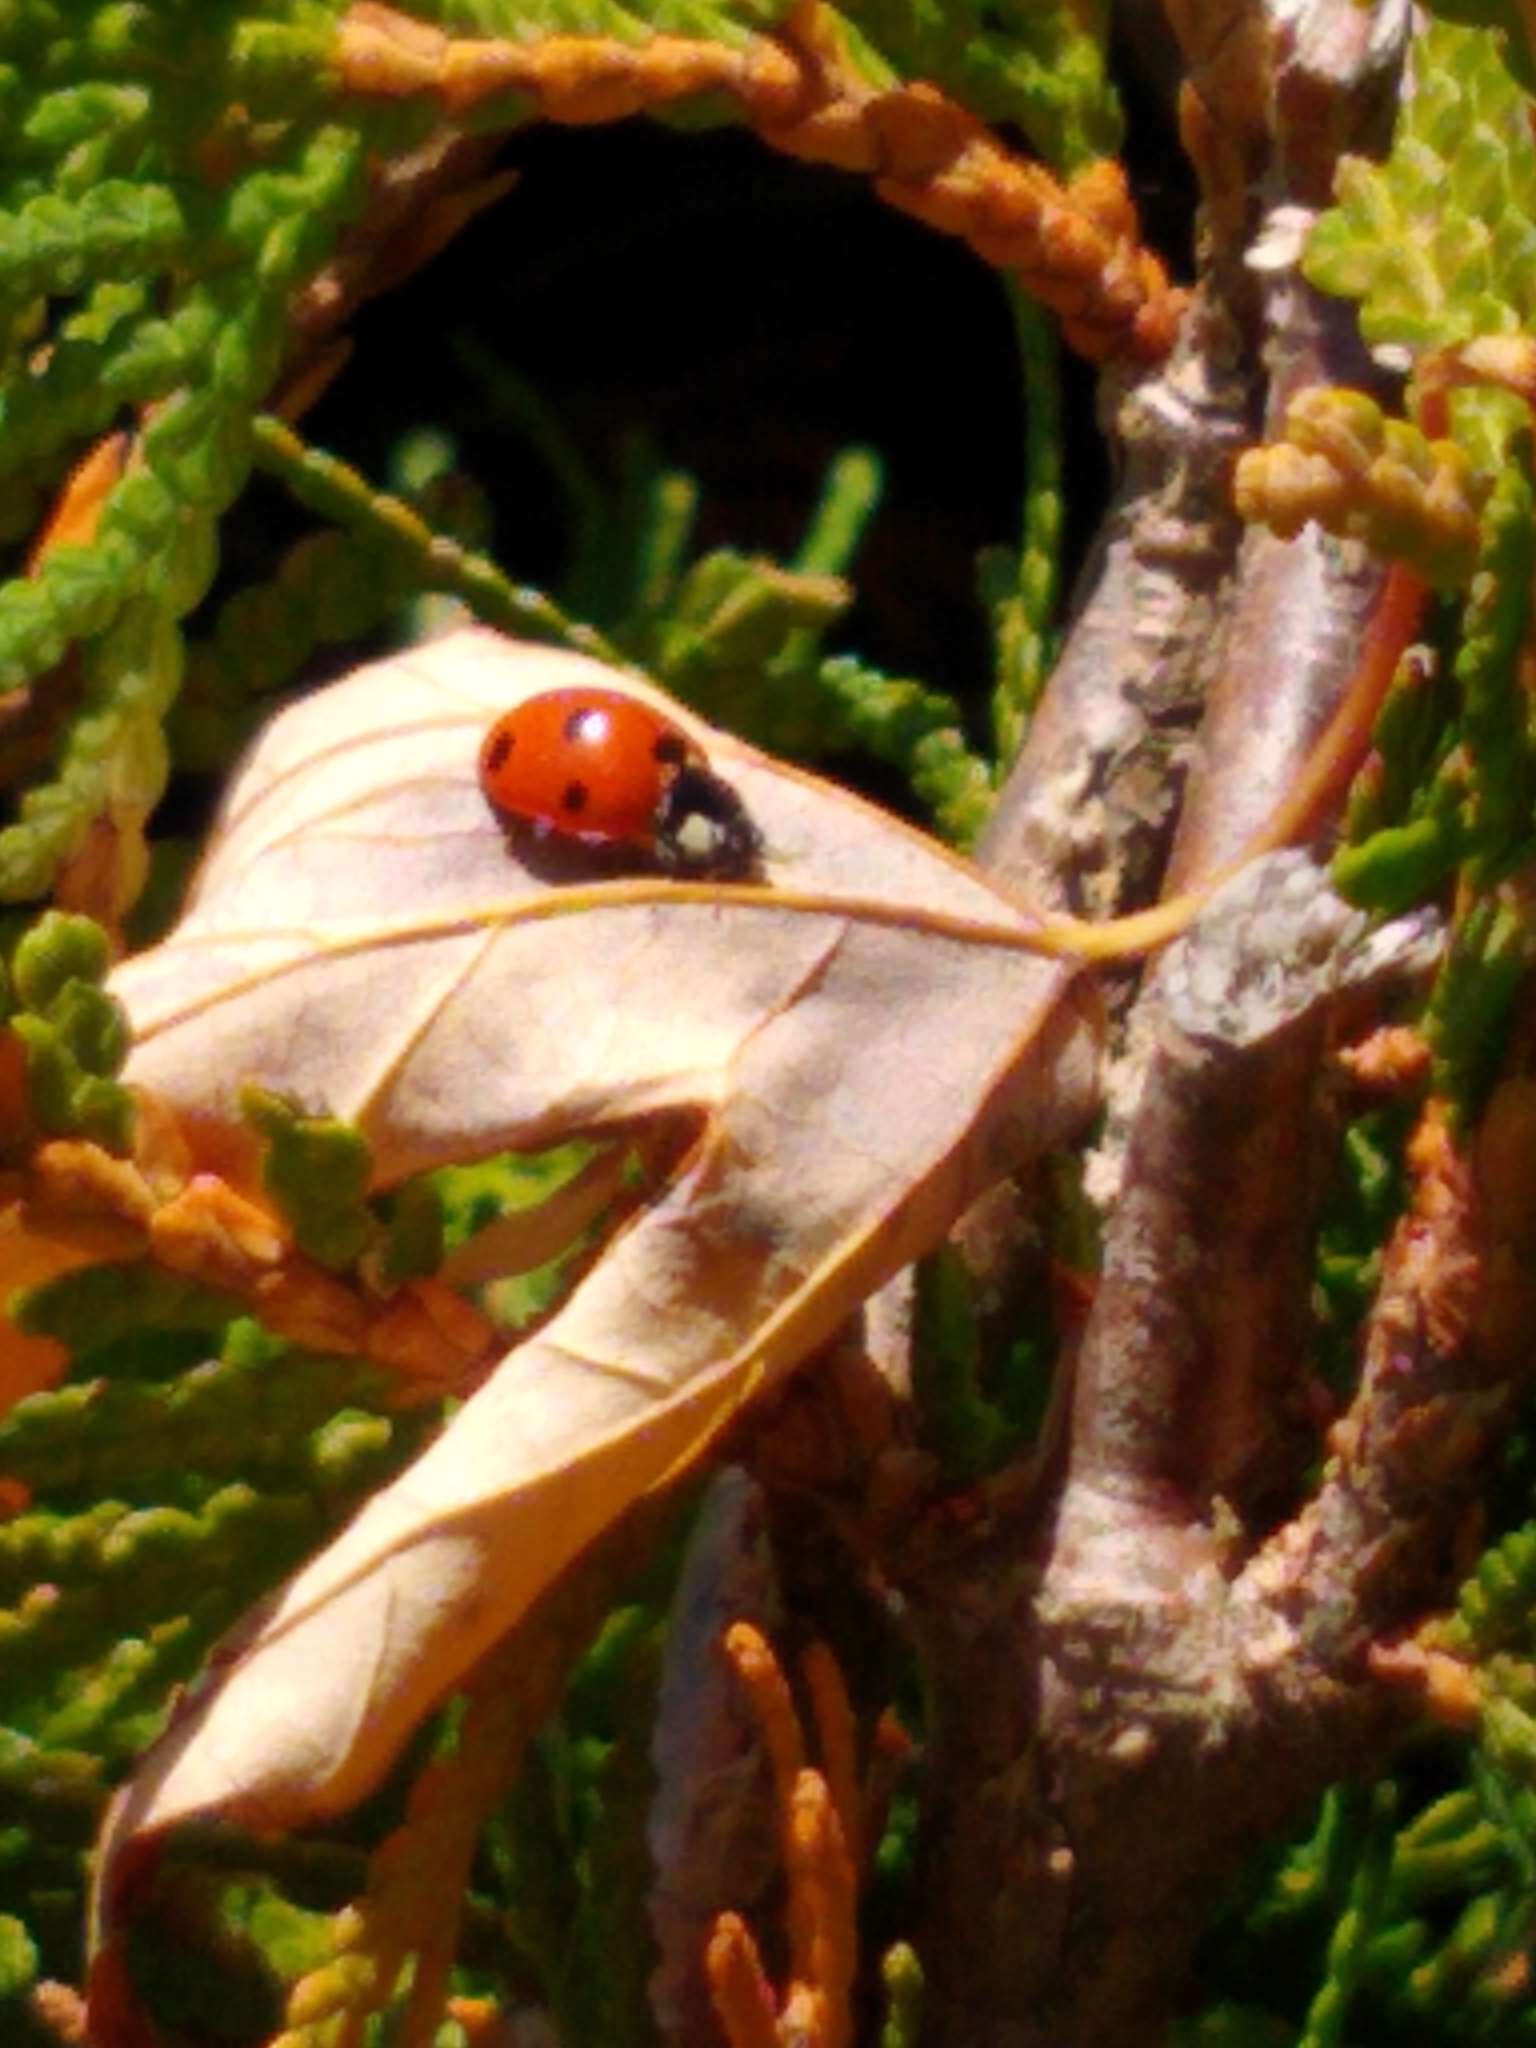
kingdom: Animalia
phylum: Arthropoda
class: Insecta
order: Coleoptera
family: Coccinellidae
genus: Coccinella
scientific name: Coccinella septempunctata
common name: Sevenspotted lady beetle
